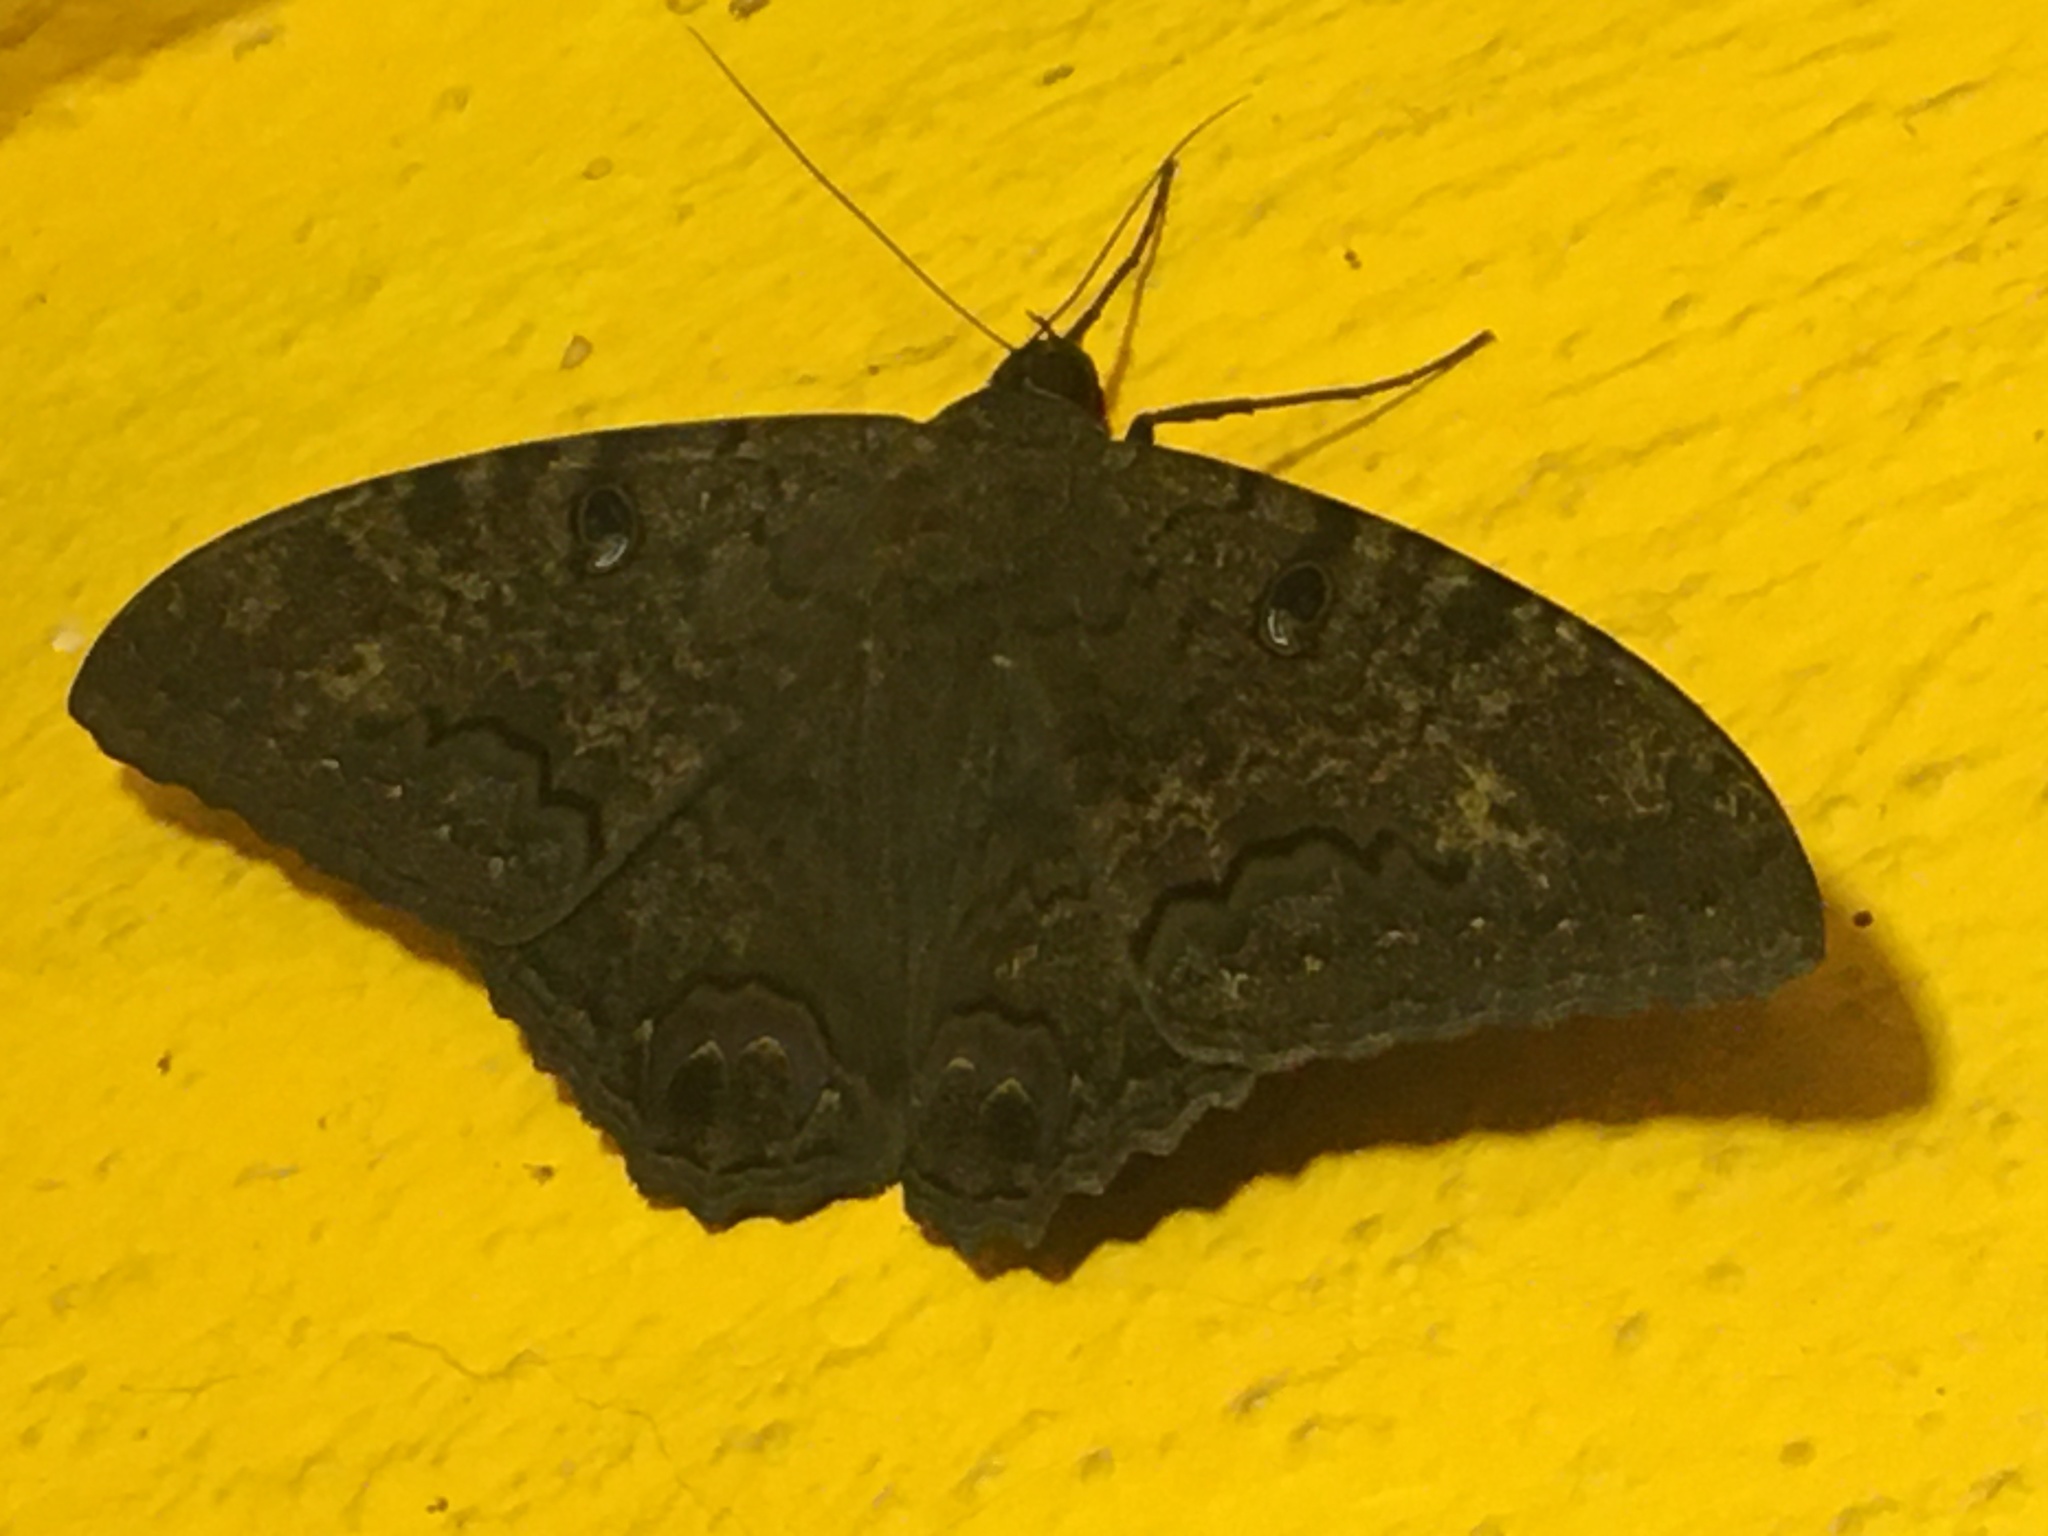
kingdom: Animalia
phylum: Arthropoda
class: Insecta
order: Lepidoptera
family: Erebidae
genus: Ascalapha
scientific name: Ascalapha odorata
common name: Black witch
